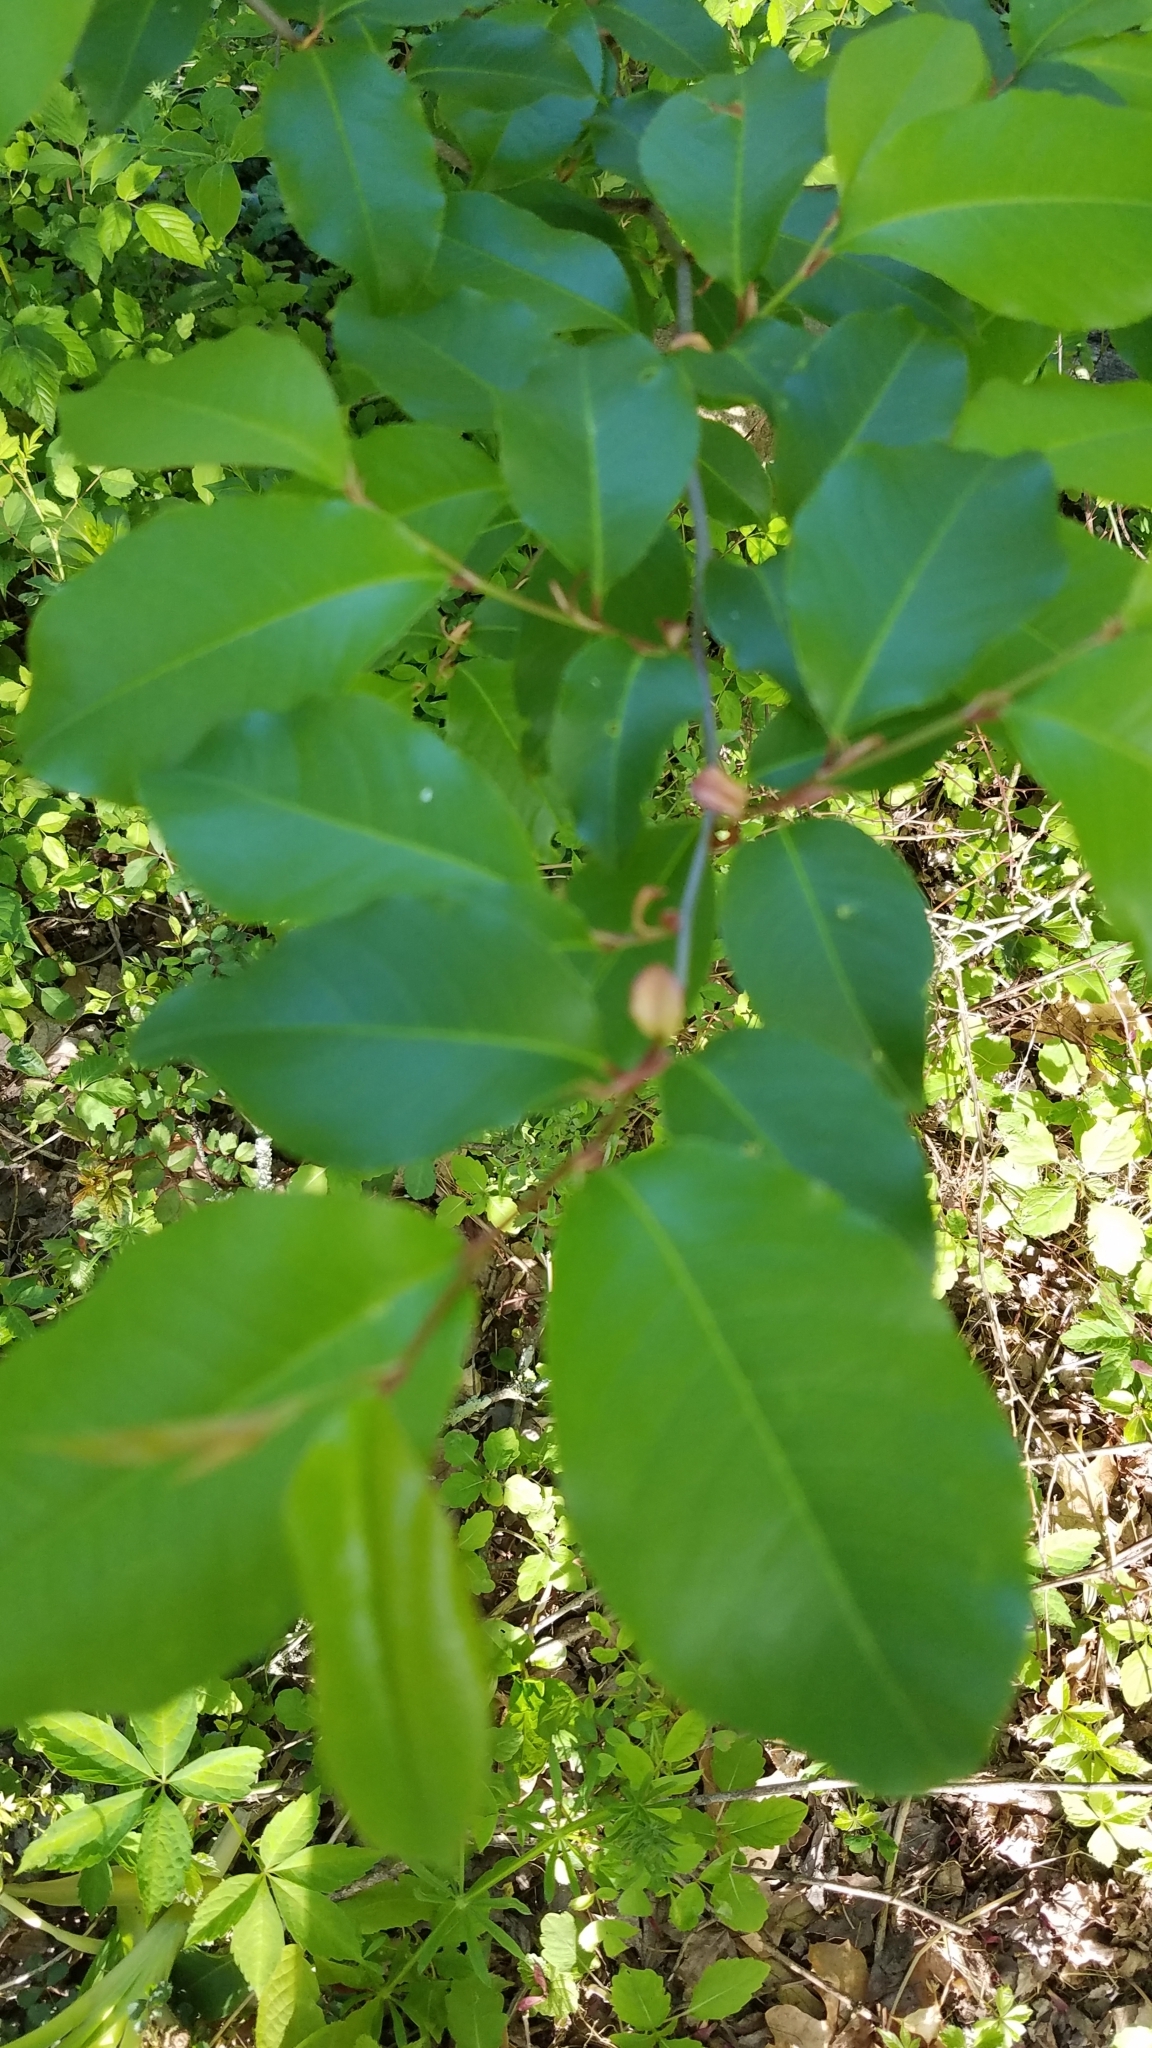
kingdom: Plantae
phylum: Tracheophyta
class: Magnoliopsida
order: Rosales
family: Rosaceae
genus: Prunus
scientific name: Prunus serotina
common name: Black cherry
